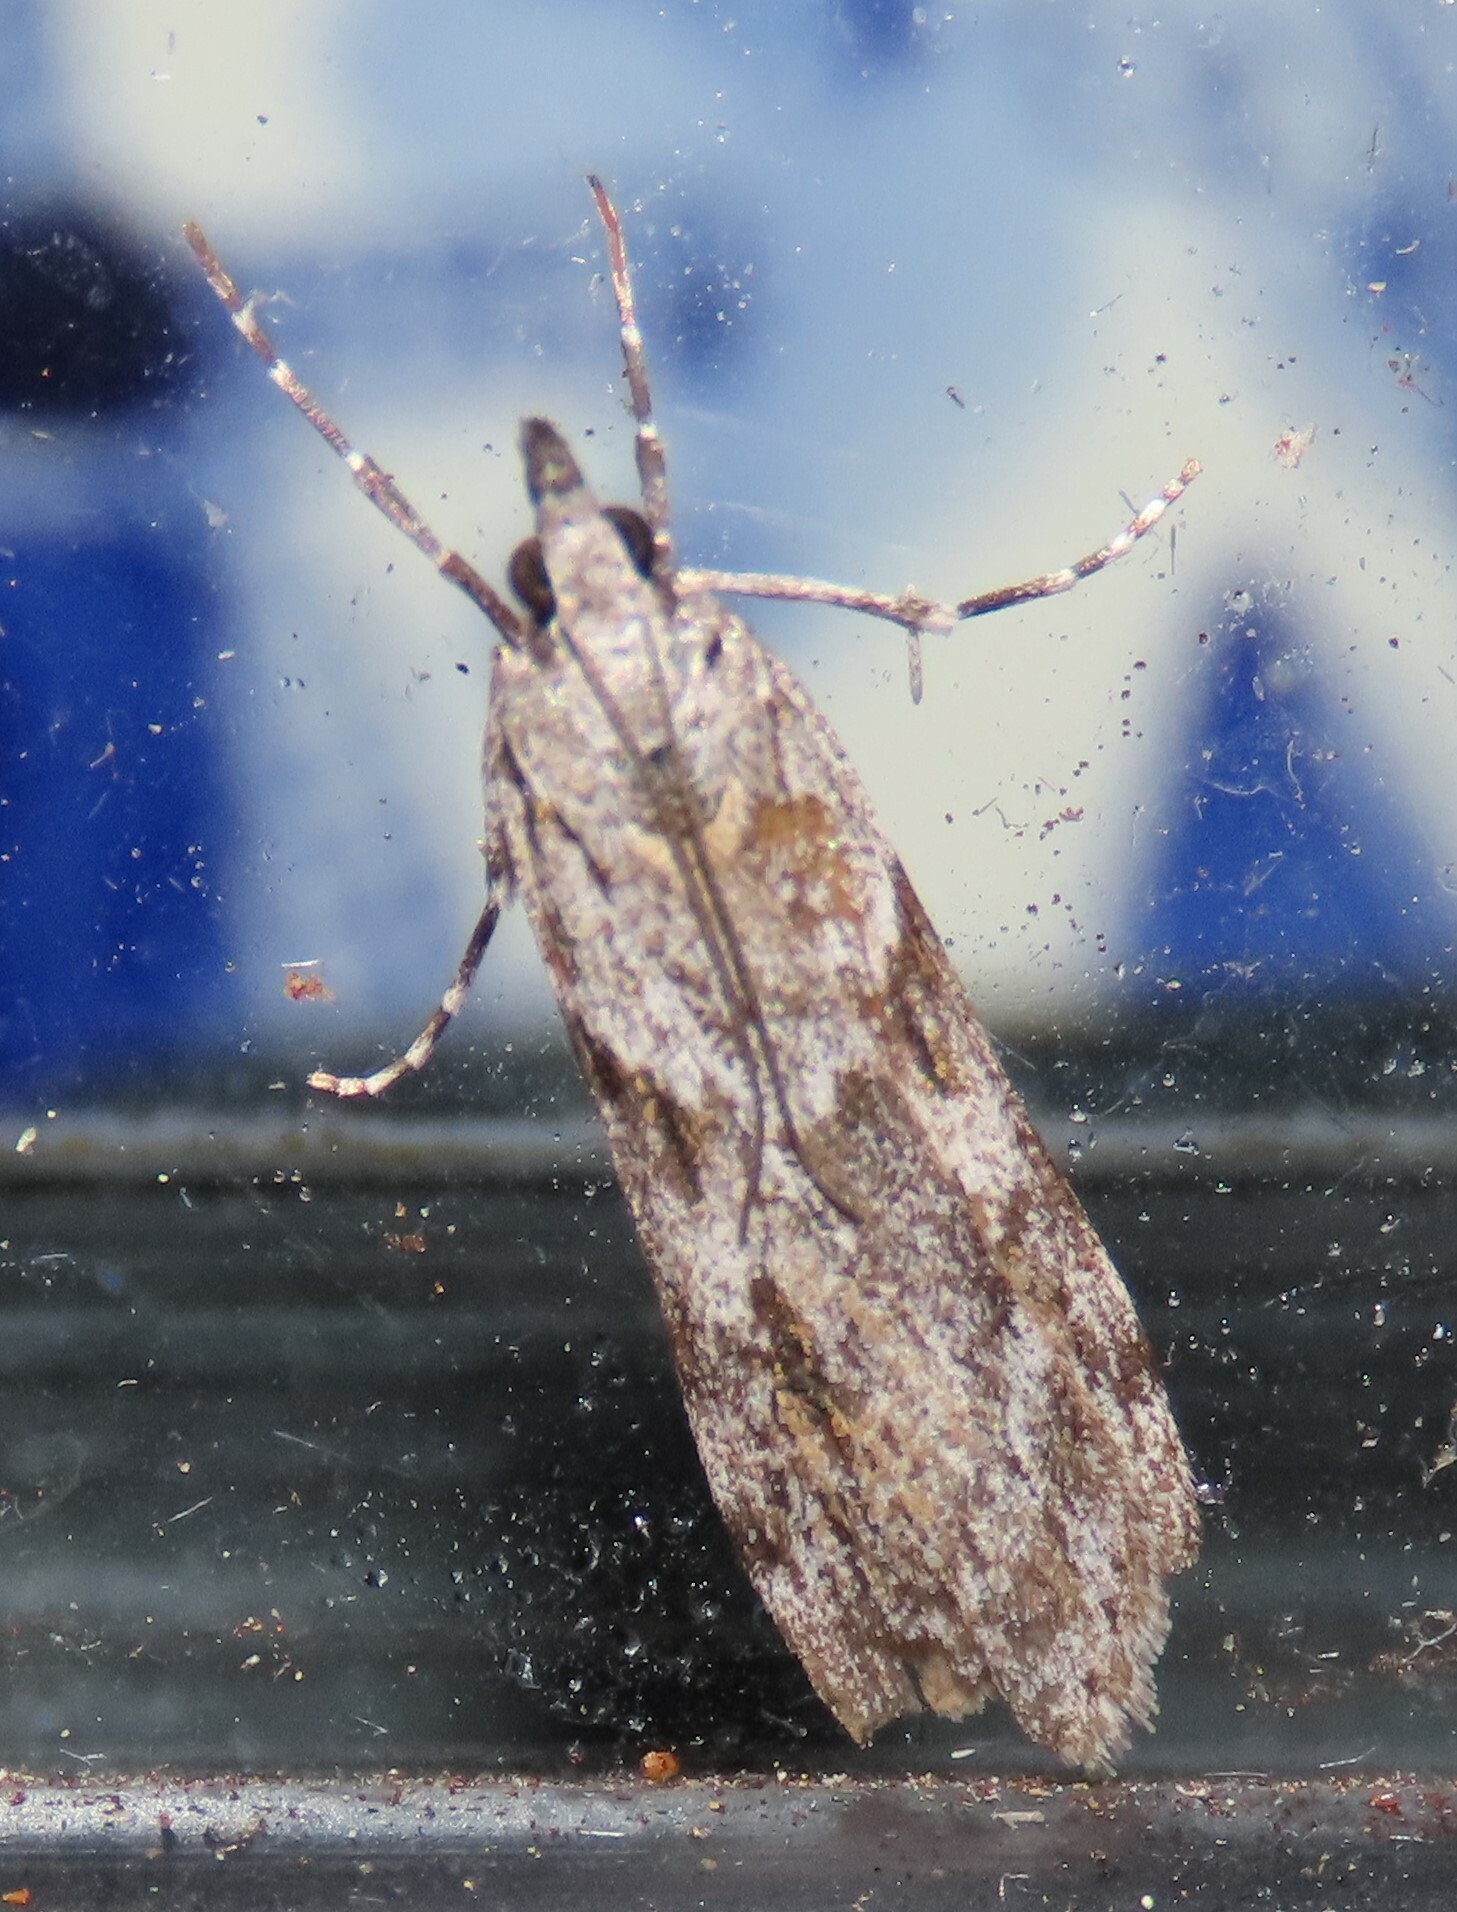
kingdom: Animalia
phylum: Arthropoda
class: Insecta
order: Lepidoptera
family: Crambidae
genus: Scoparia
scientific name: Scoparia halopis
